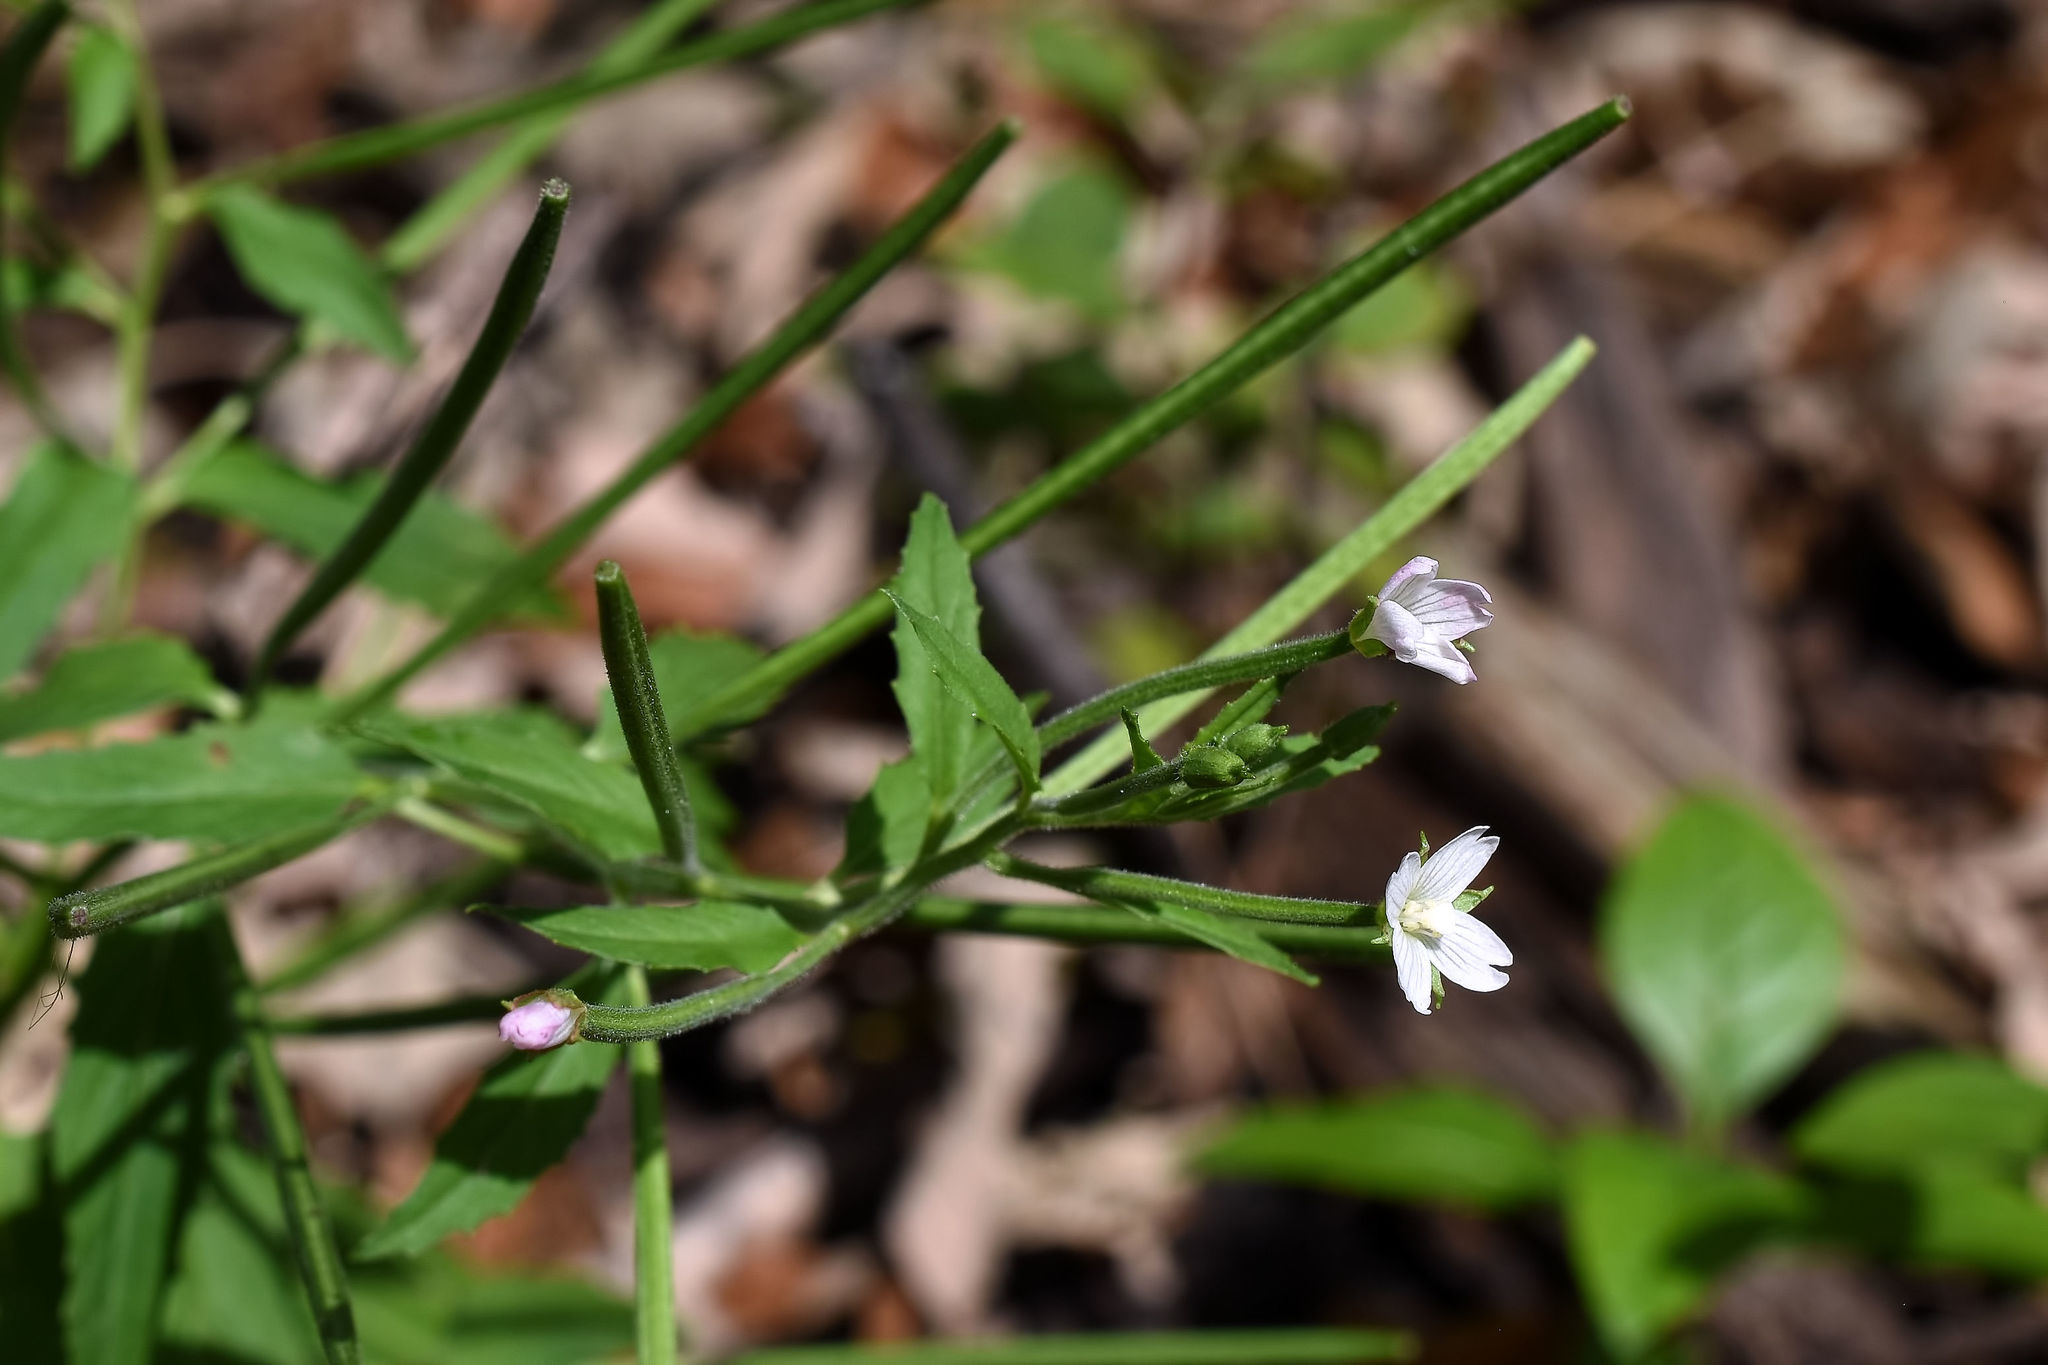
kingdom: Plantae
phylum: Tracheophyta
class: Magnoliopsida
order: Myrtales
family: Onagraceae
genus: Epilobium
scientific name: Epilobium coloratum
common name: Bronze willowherb
